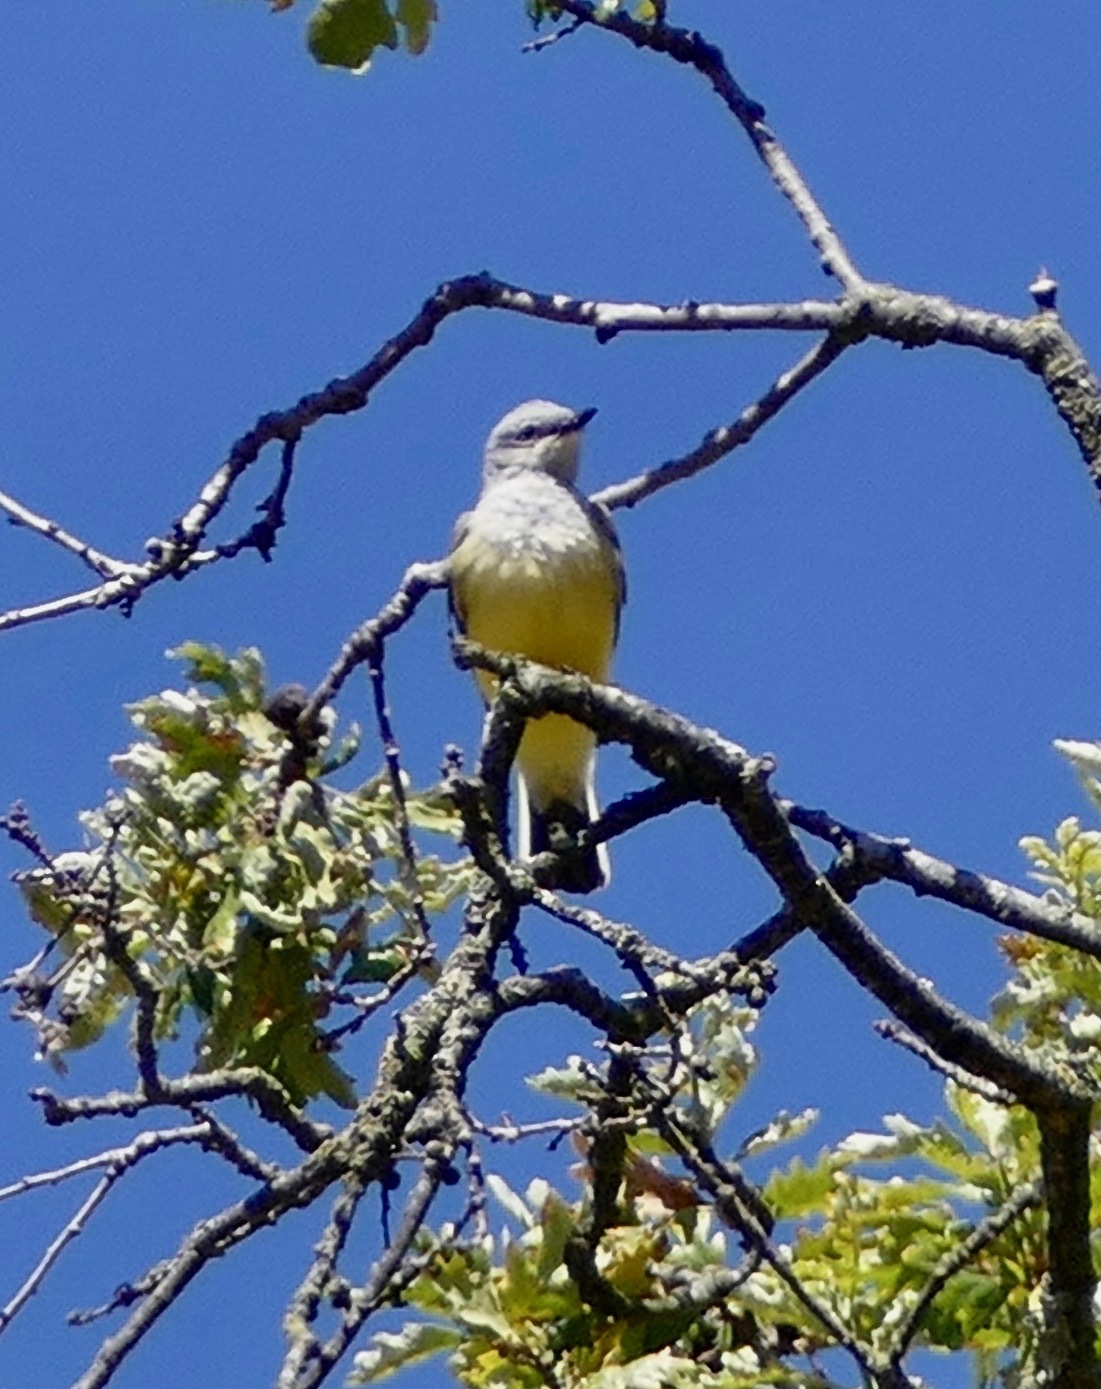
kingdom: Animalia
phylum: Chordata
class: Aves
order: Passeriformes
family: Tyrannidae
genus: Tyrannus
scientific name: Tyrannus verticalis
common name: Western kingbird
